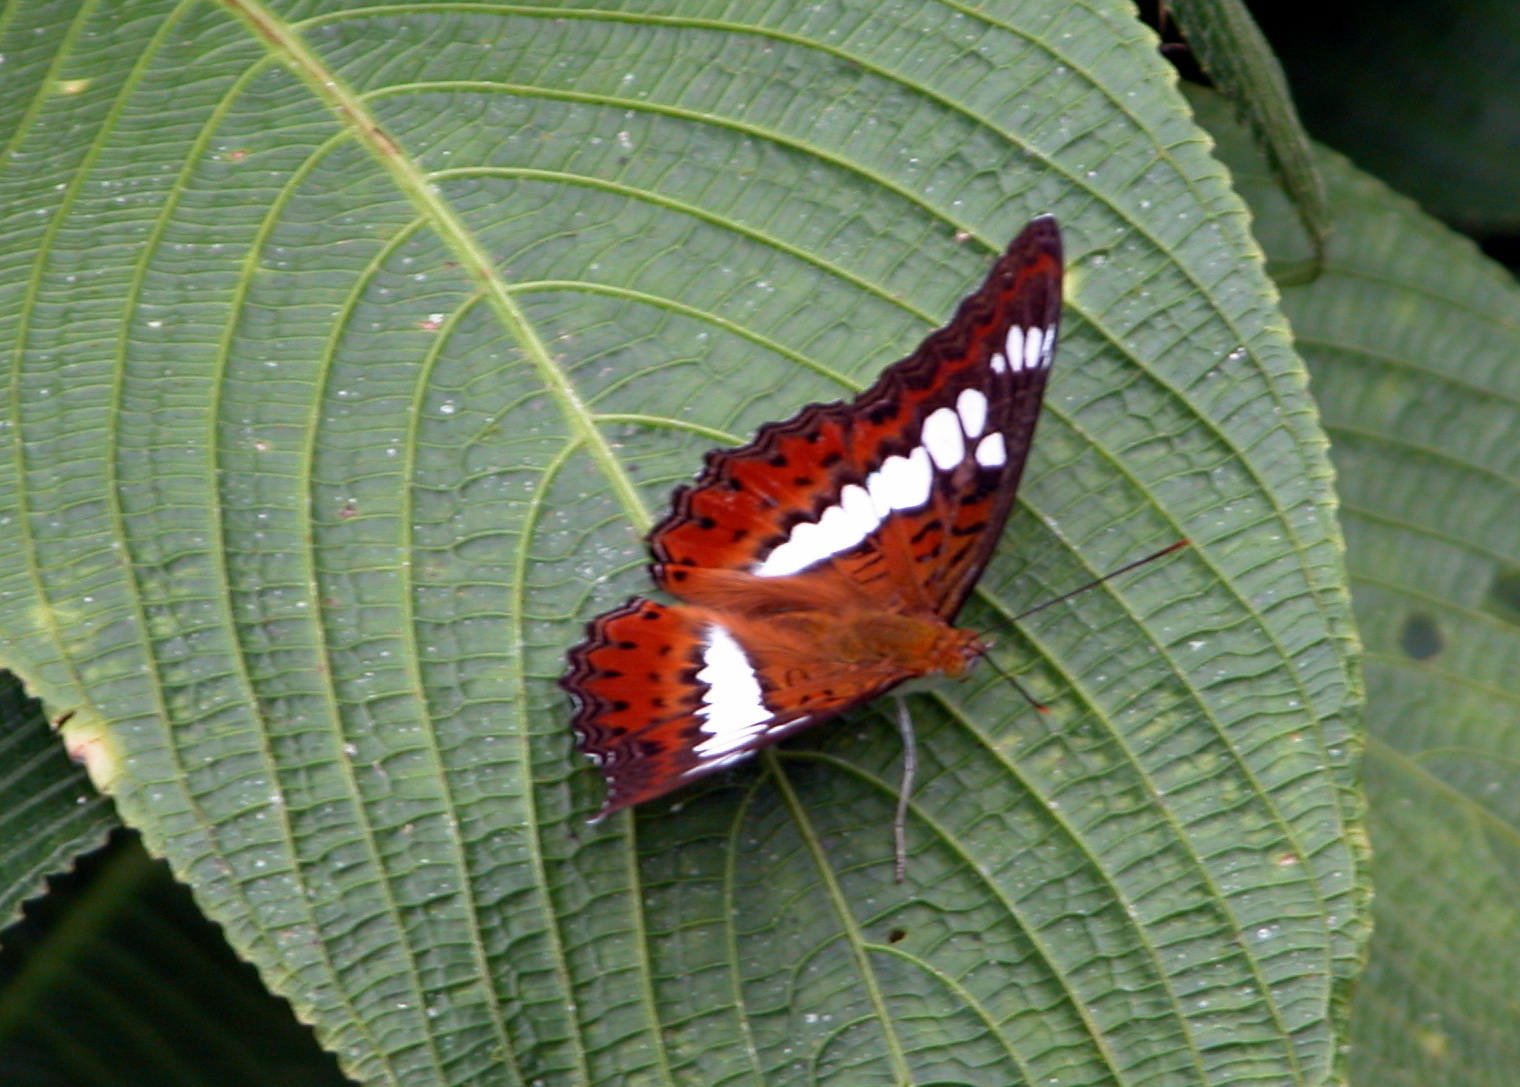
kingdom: Animalia
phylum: Arthropoda
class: Insecta
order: Lepidoptera
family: Nymphalidae
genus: Limenitis
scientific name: Limenitis Moduza procris
